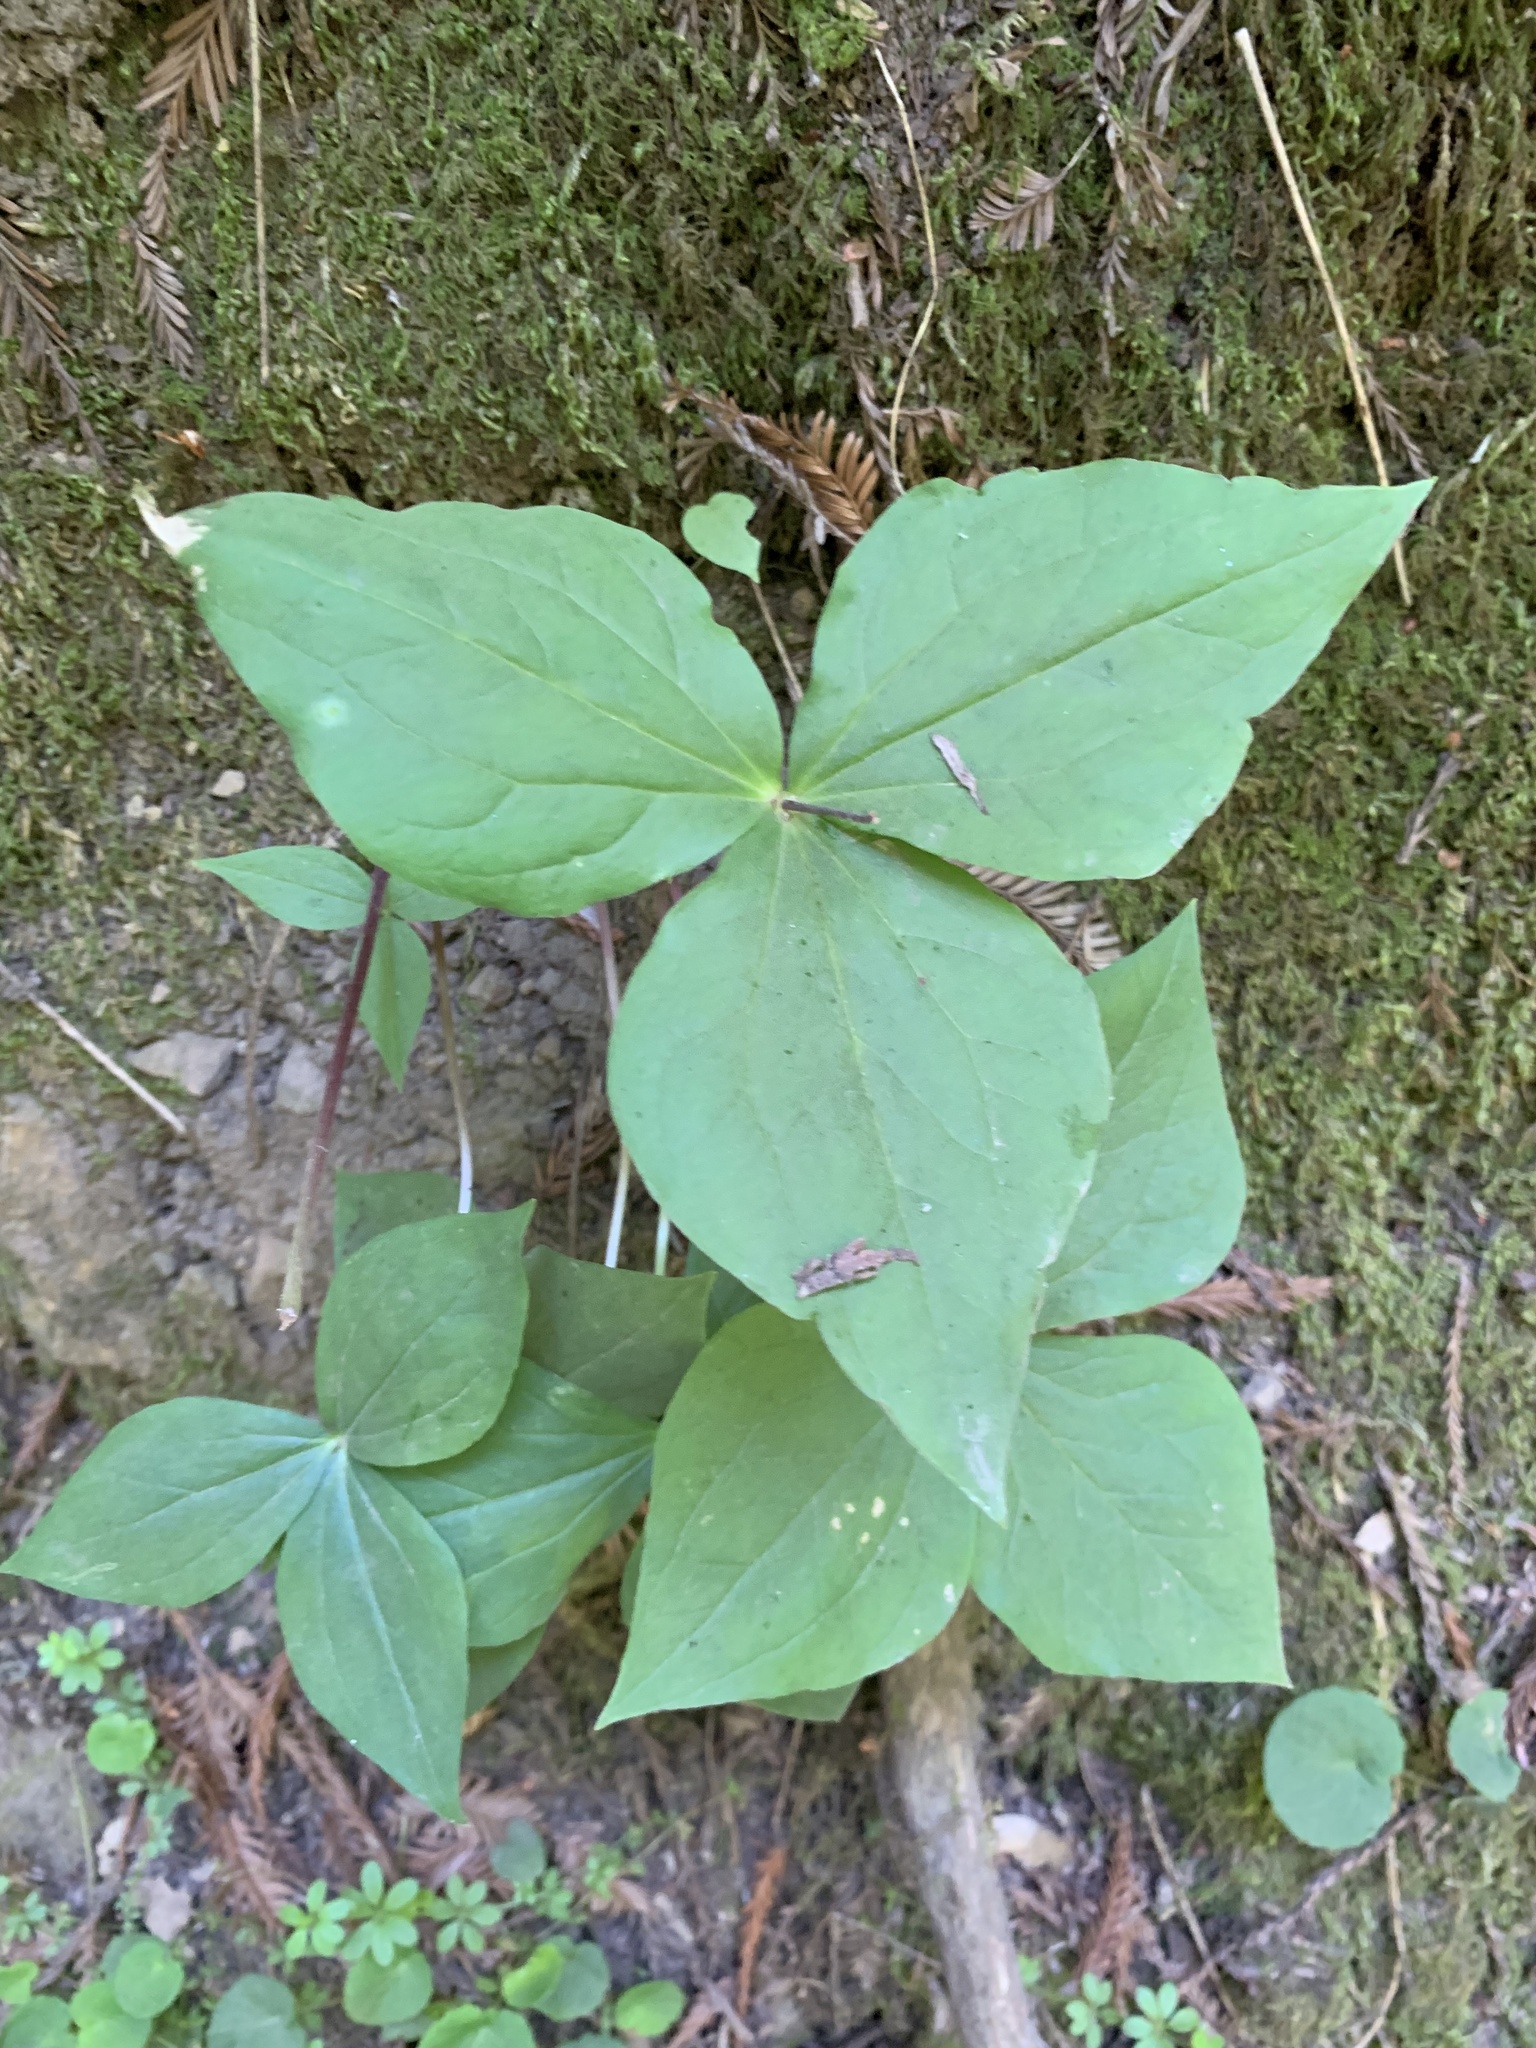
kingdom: Plantae
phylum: Tracheophyta
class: Liliopsida
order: Liliales
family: Melanthiaceae
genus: Trillium
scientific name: Trillium ovatum
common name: Pacific trillium
